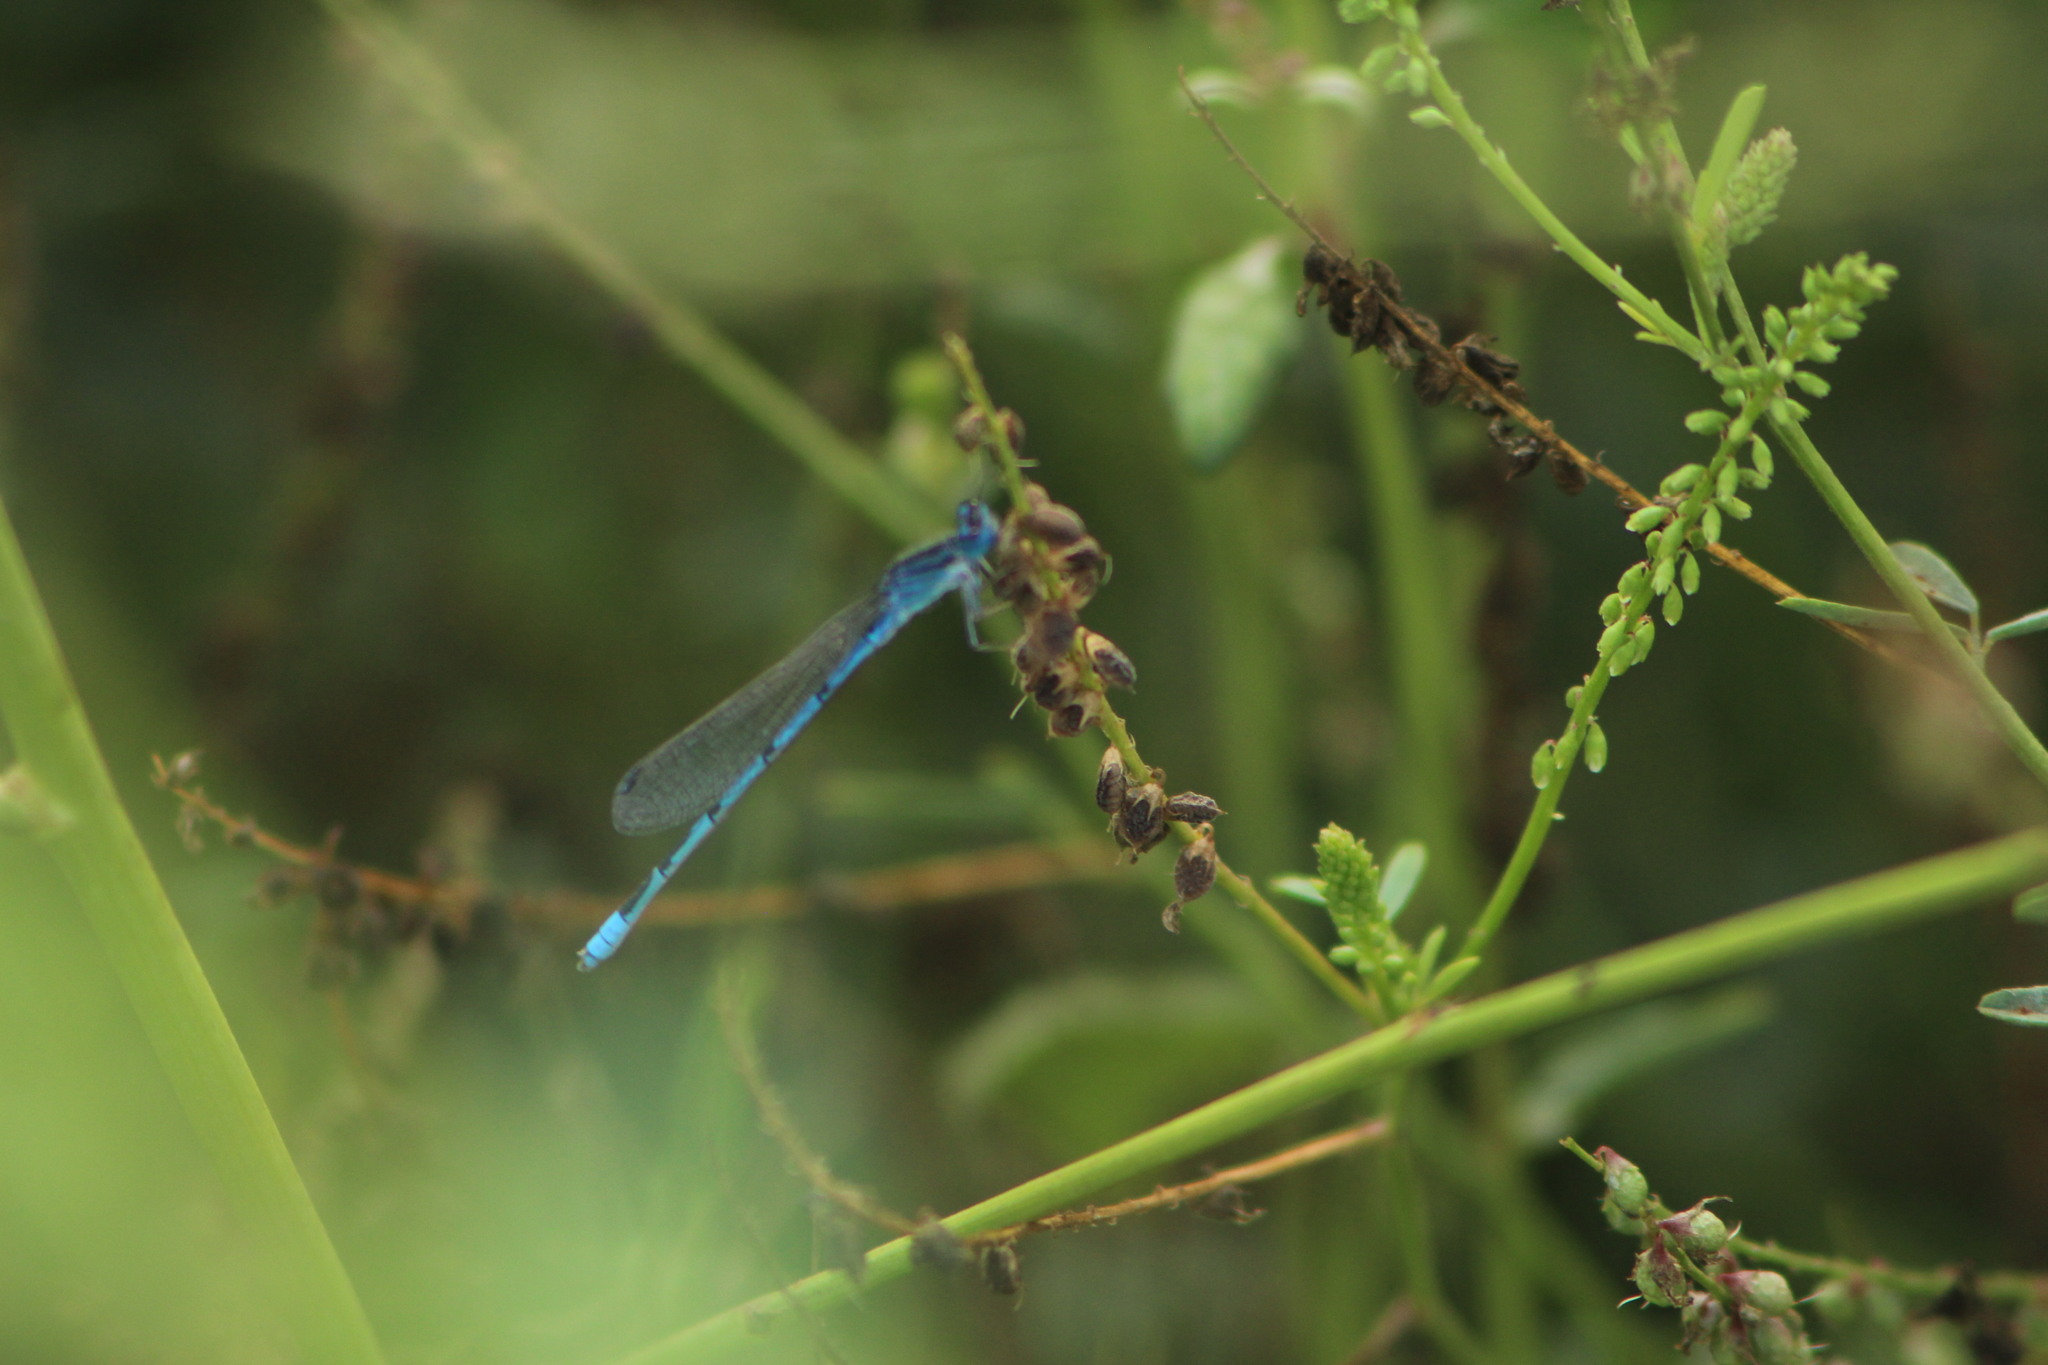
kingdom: Animalia
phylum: Arthropoda
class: Insecta
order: Odonata
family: Coenagrionidae
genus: Enallagma
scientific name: Enallagma civile
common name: Damselfly
